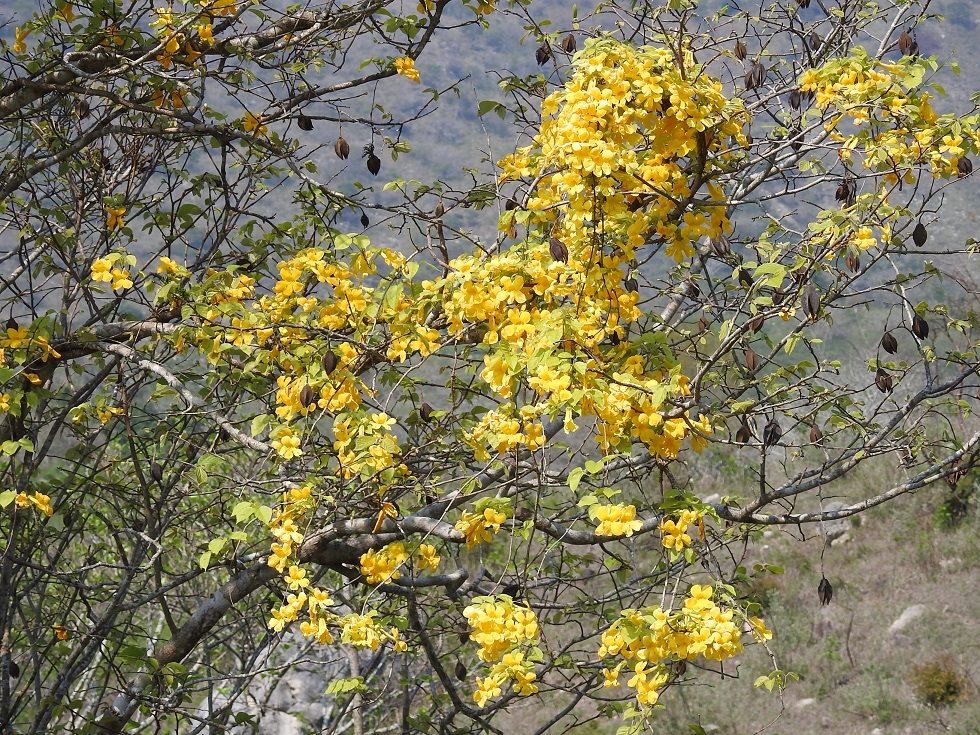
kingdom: Plantae
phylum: Tracheophyta
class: Magnoliopsida
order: Lamiales
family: Bignoniaceae
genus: Anemopaegma
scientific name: Anemopaegma chrysanthum
